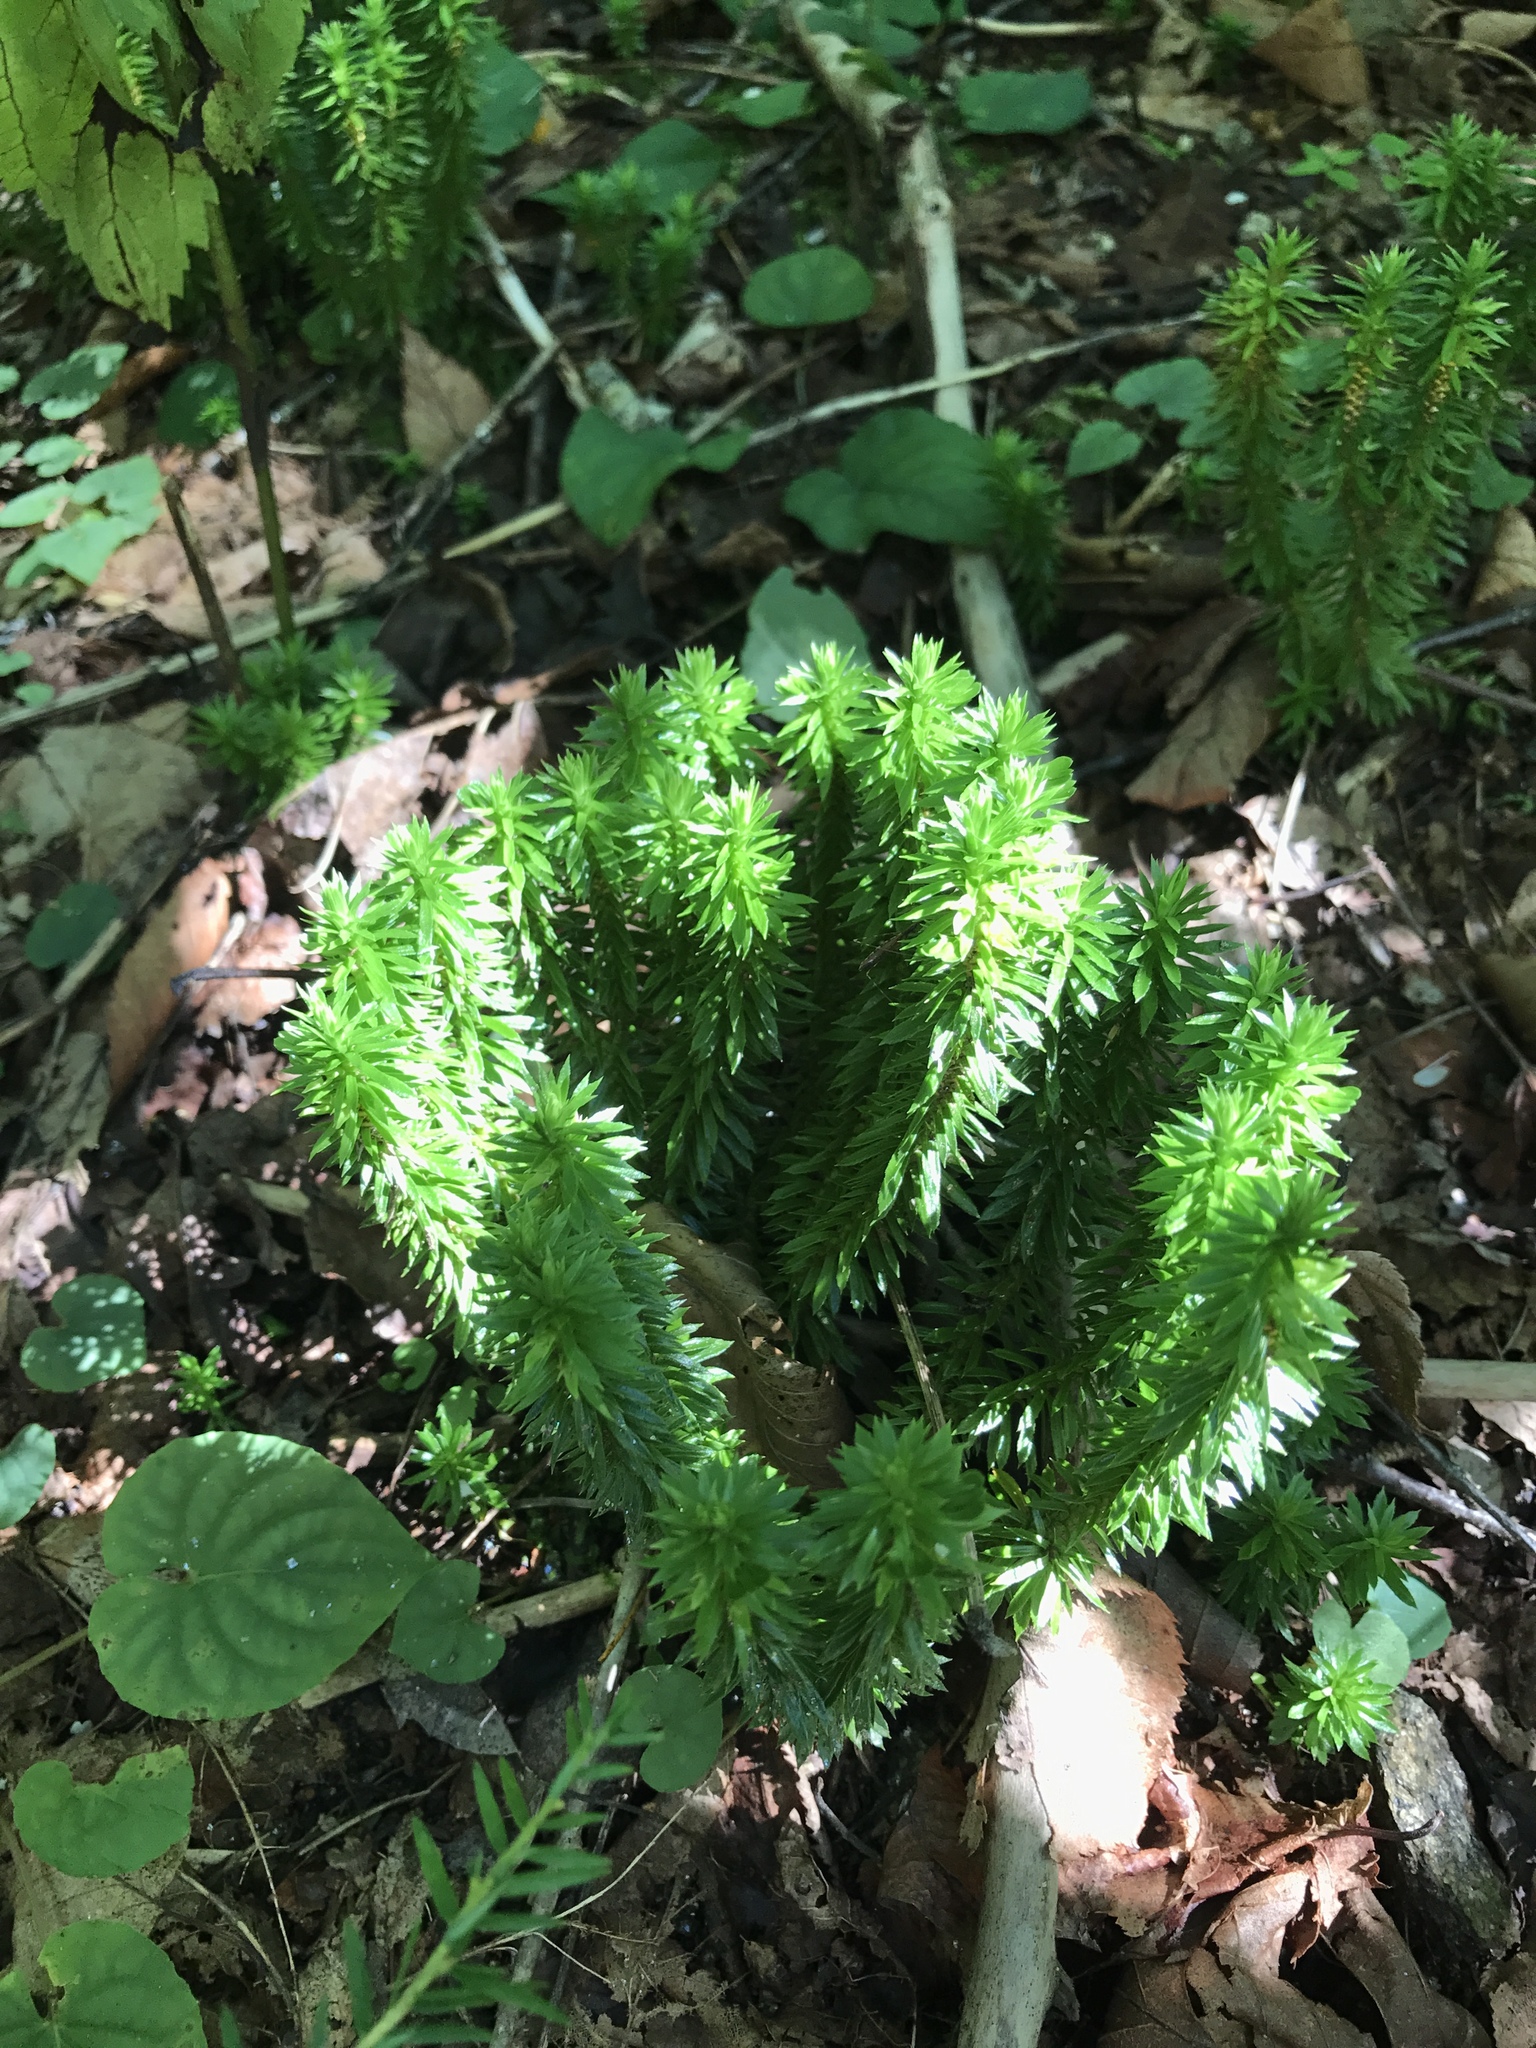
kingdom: Plantae
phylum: Tracheophyta
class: Lycopodiopsida
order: Lycopodiales
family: Lycopodiaceae
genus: Huperzia
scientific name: Huperzia lucidula
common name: Shining clubmoss
